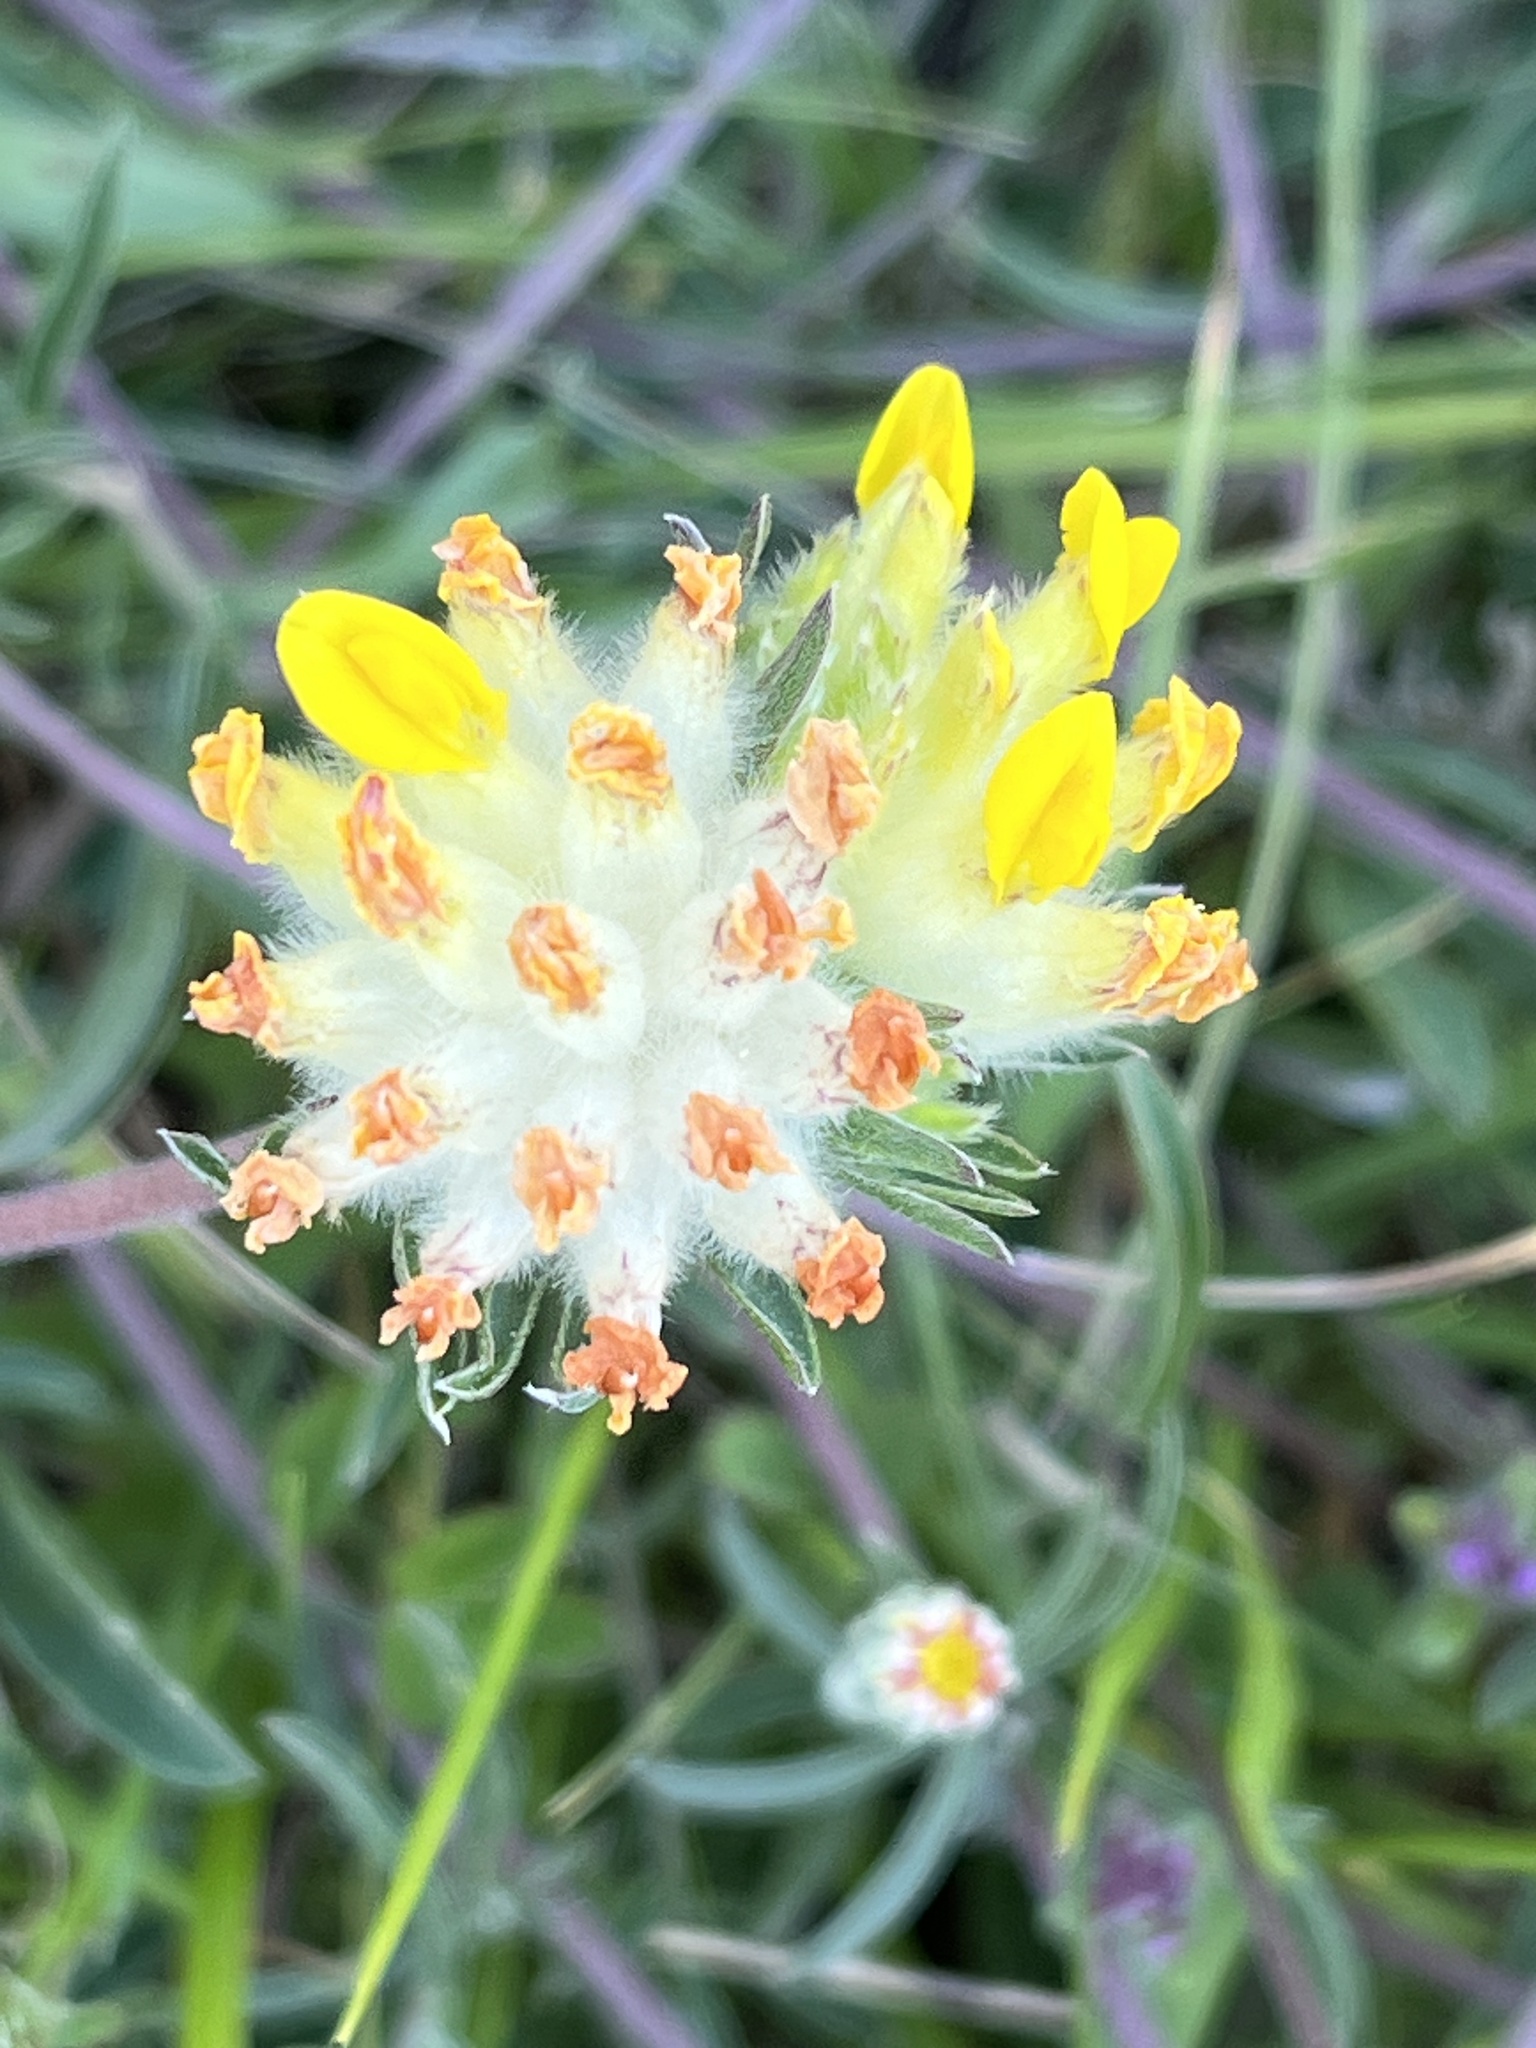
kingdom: Plantae
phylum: Tracheophyta
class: Magnoliopsida
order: Fabales
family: Fabaceae
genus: Anthyllis
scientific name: Anthyllis vulneraria
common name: Kidney vetch
